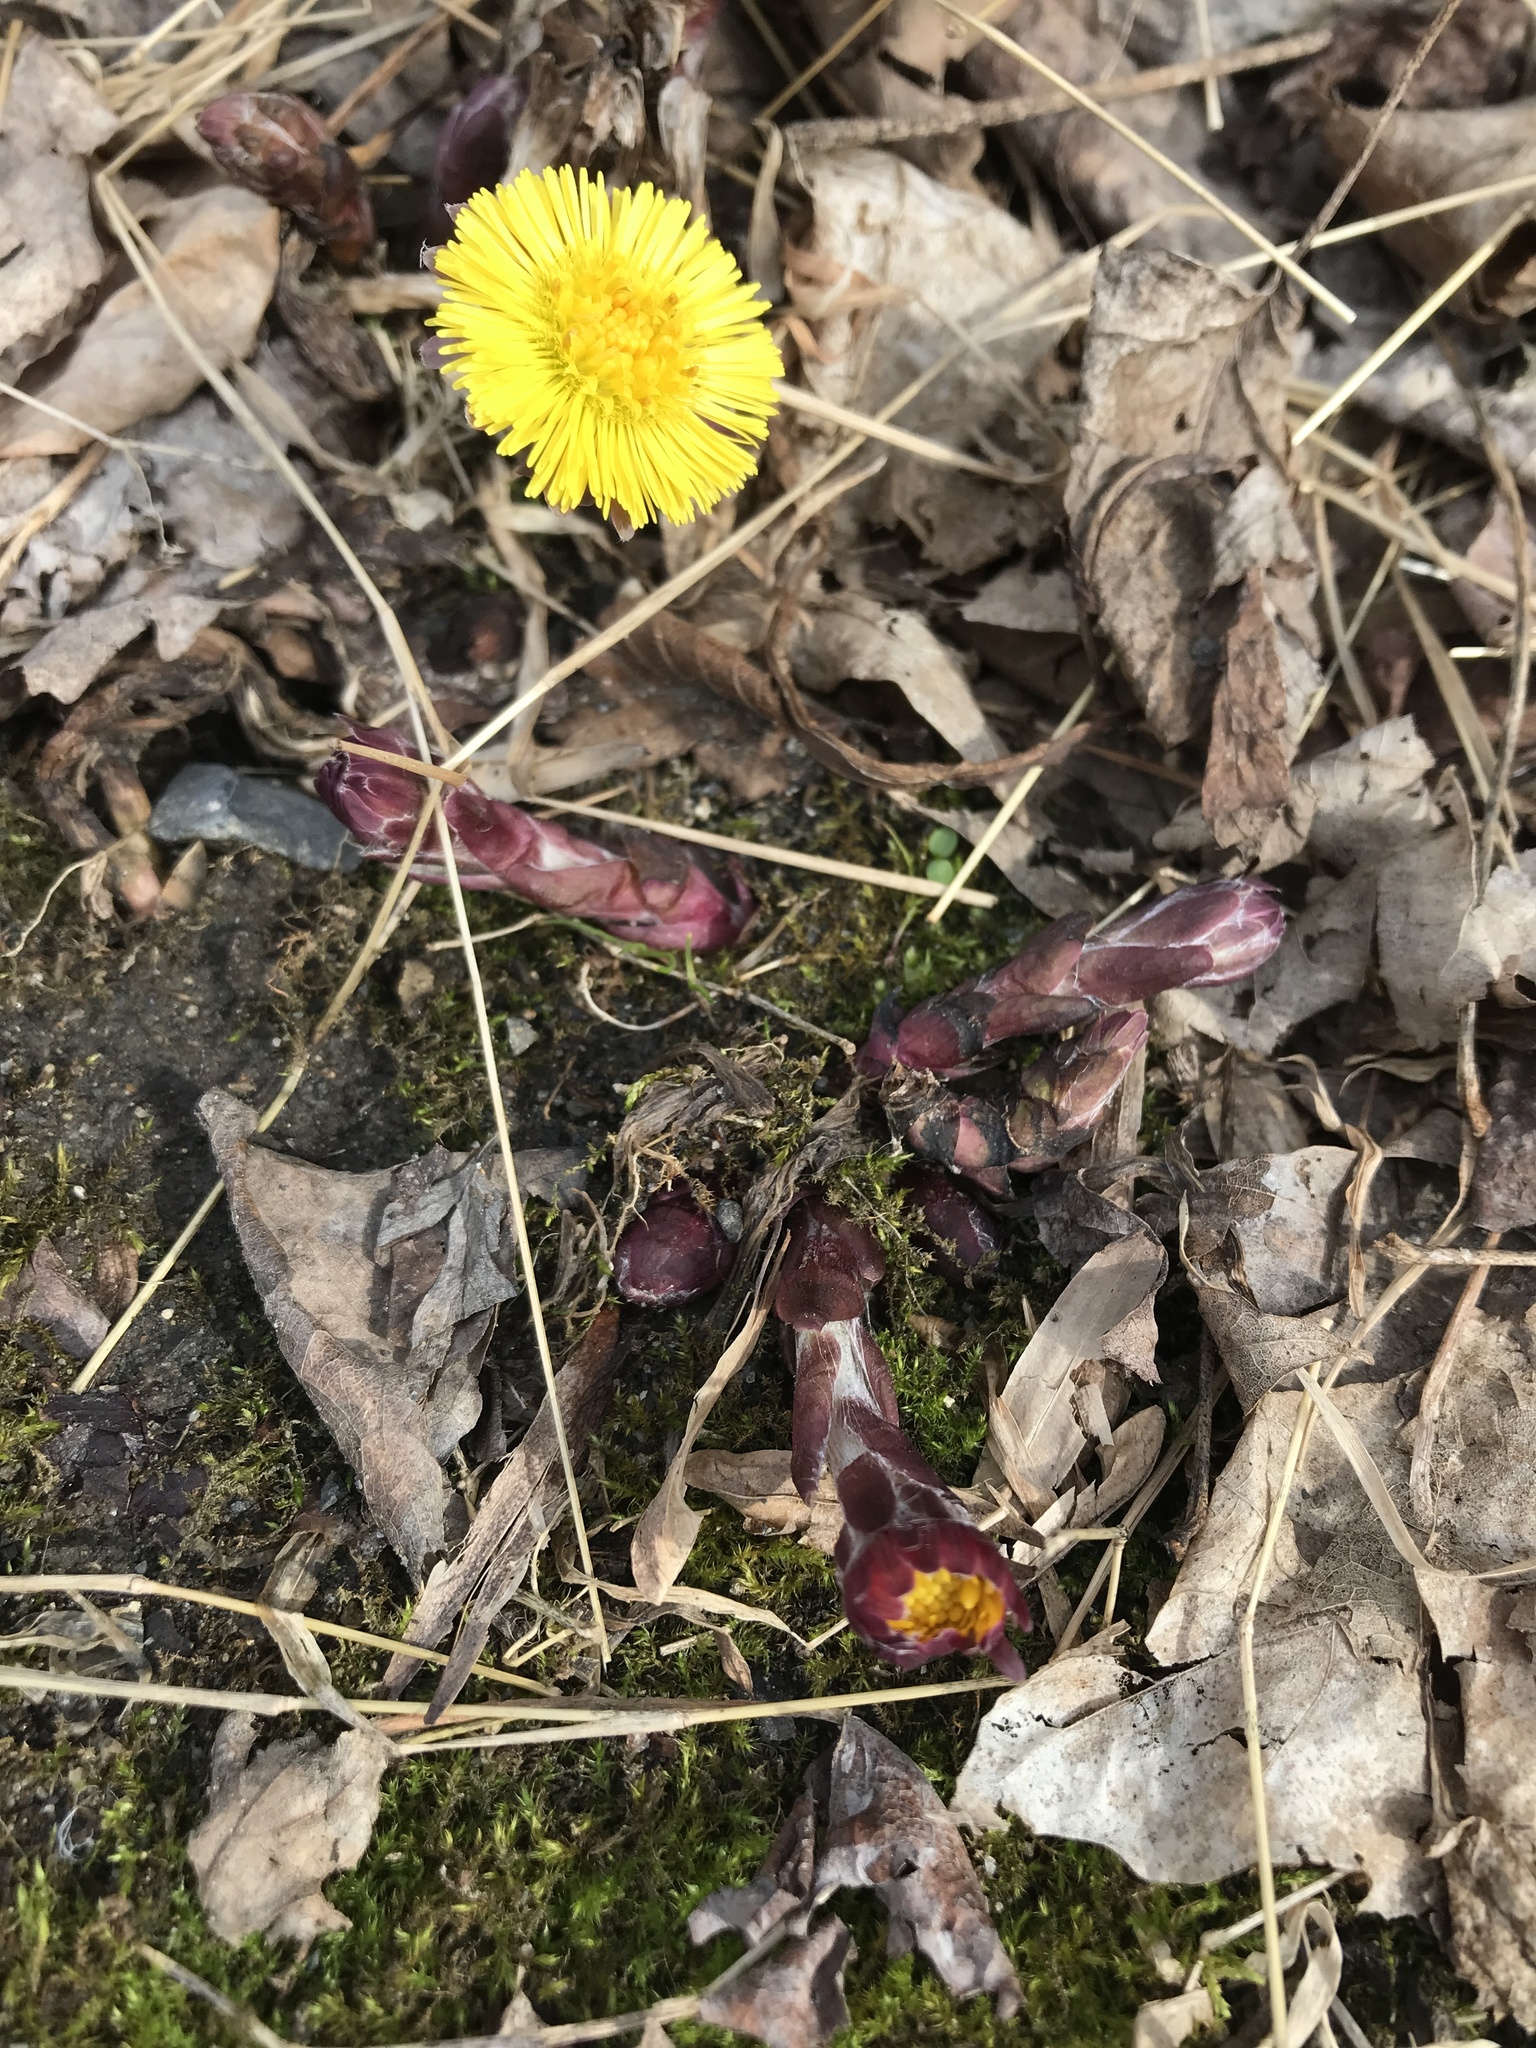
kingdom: Plantae
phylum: Tracheophyta
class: Magnoliopsida
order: Asterales
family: Asteraceae
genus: Tussilago
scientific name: Tussilago farfara
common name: Coltsfoot
